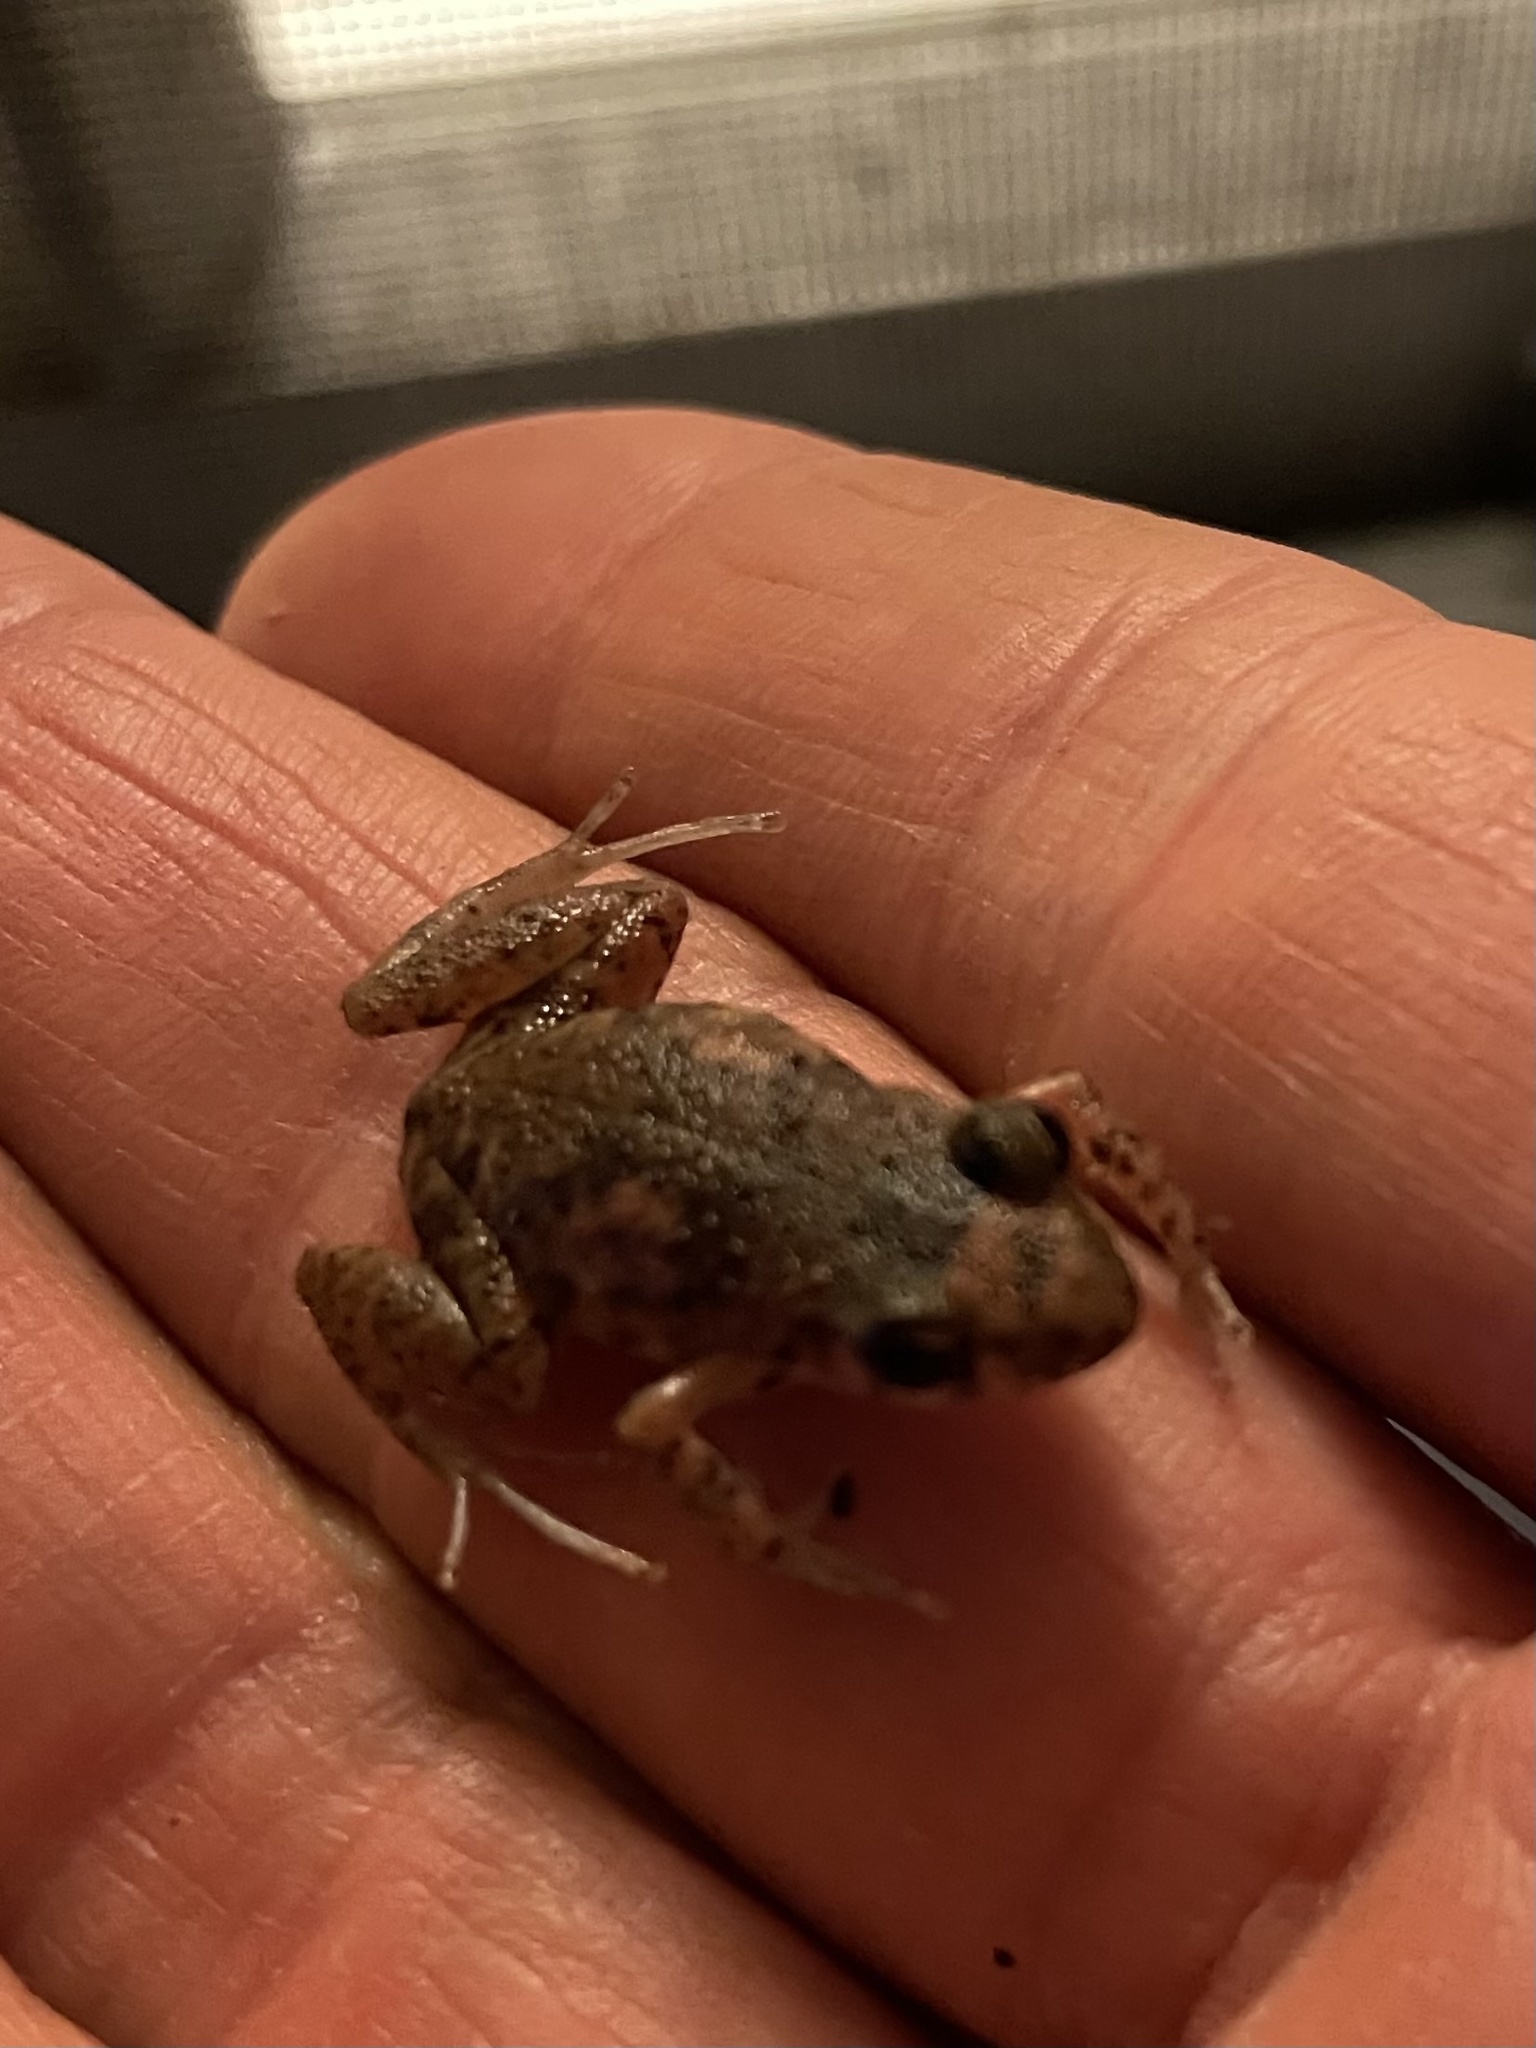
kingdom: Animalia
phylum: Chordata
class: Amphibia
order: Anura
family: Eleutherodactylidae
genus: Eleutherodactylus
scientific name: Eleutherodactylus planirostris
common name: Greenhouse frog
